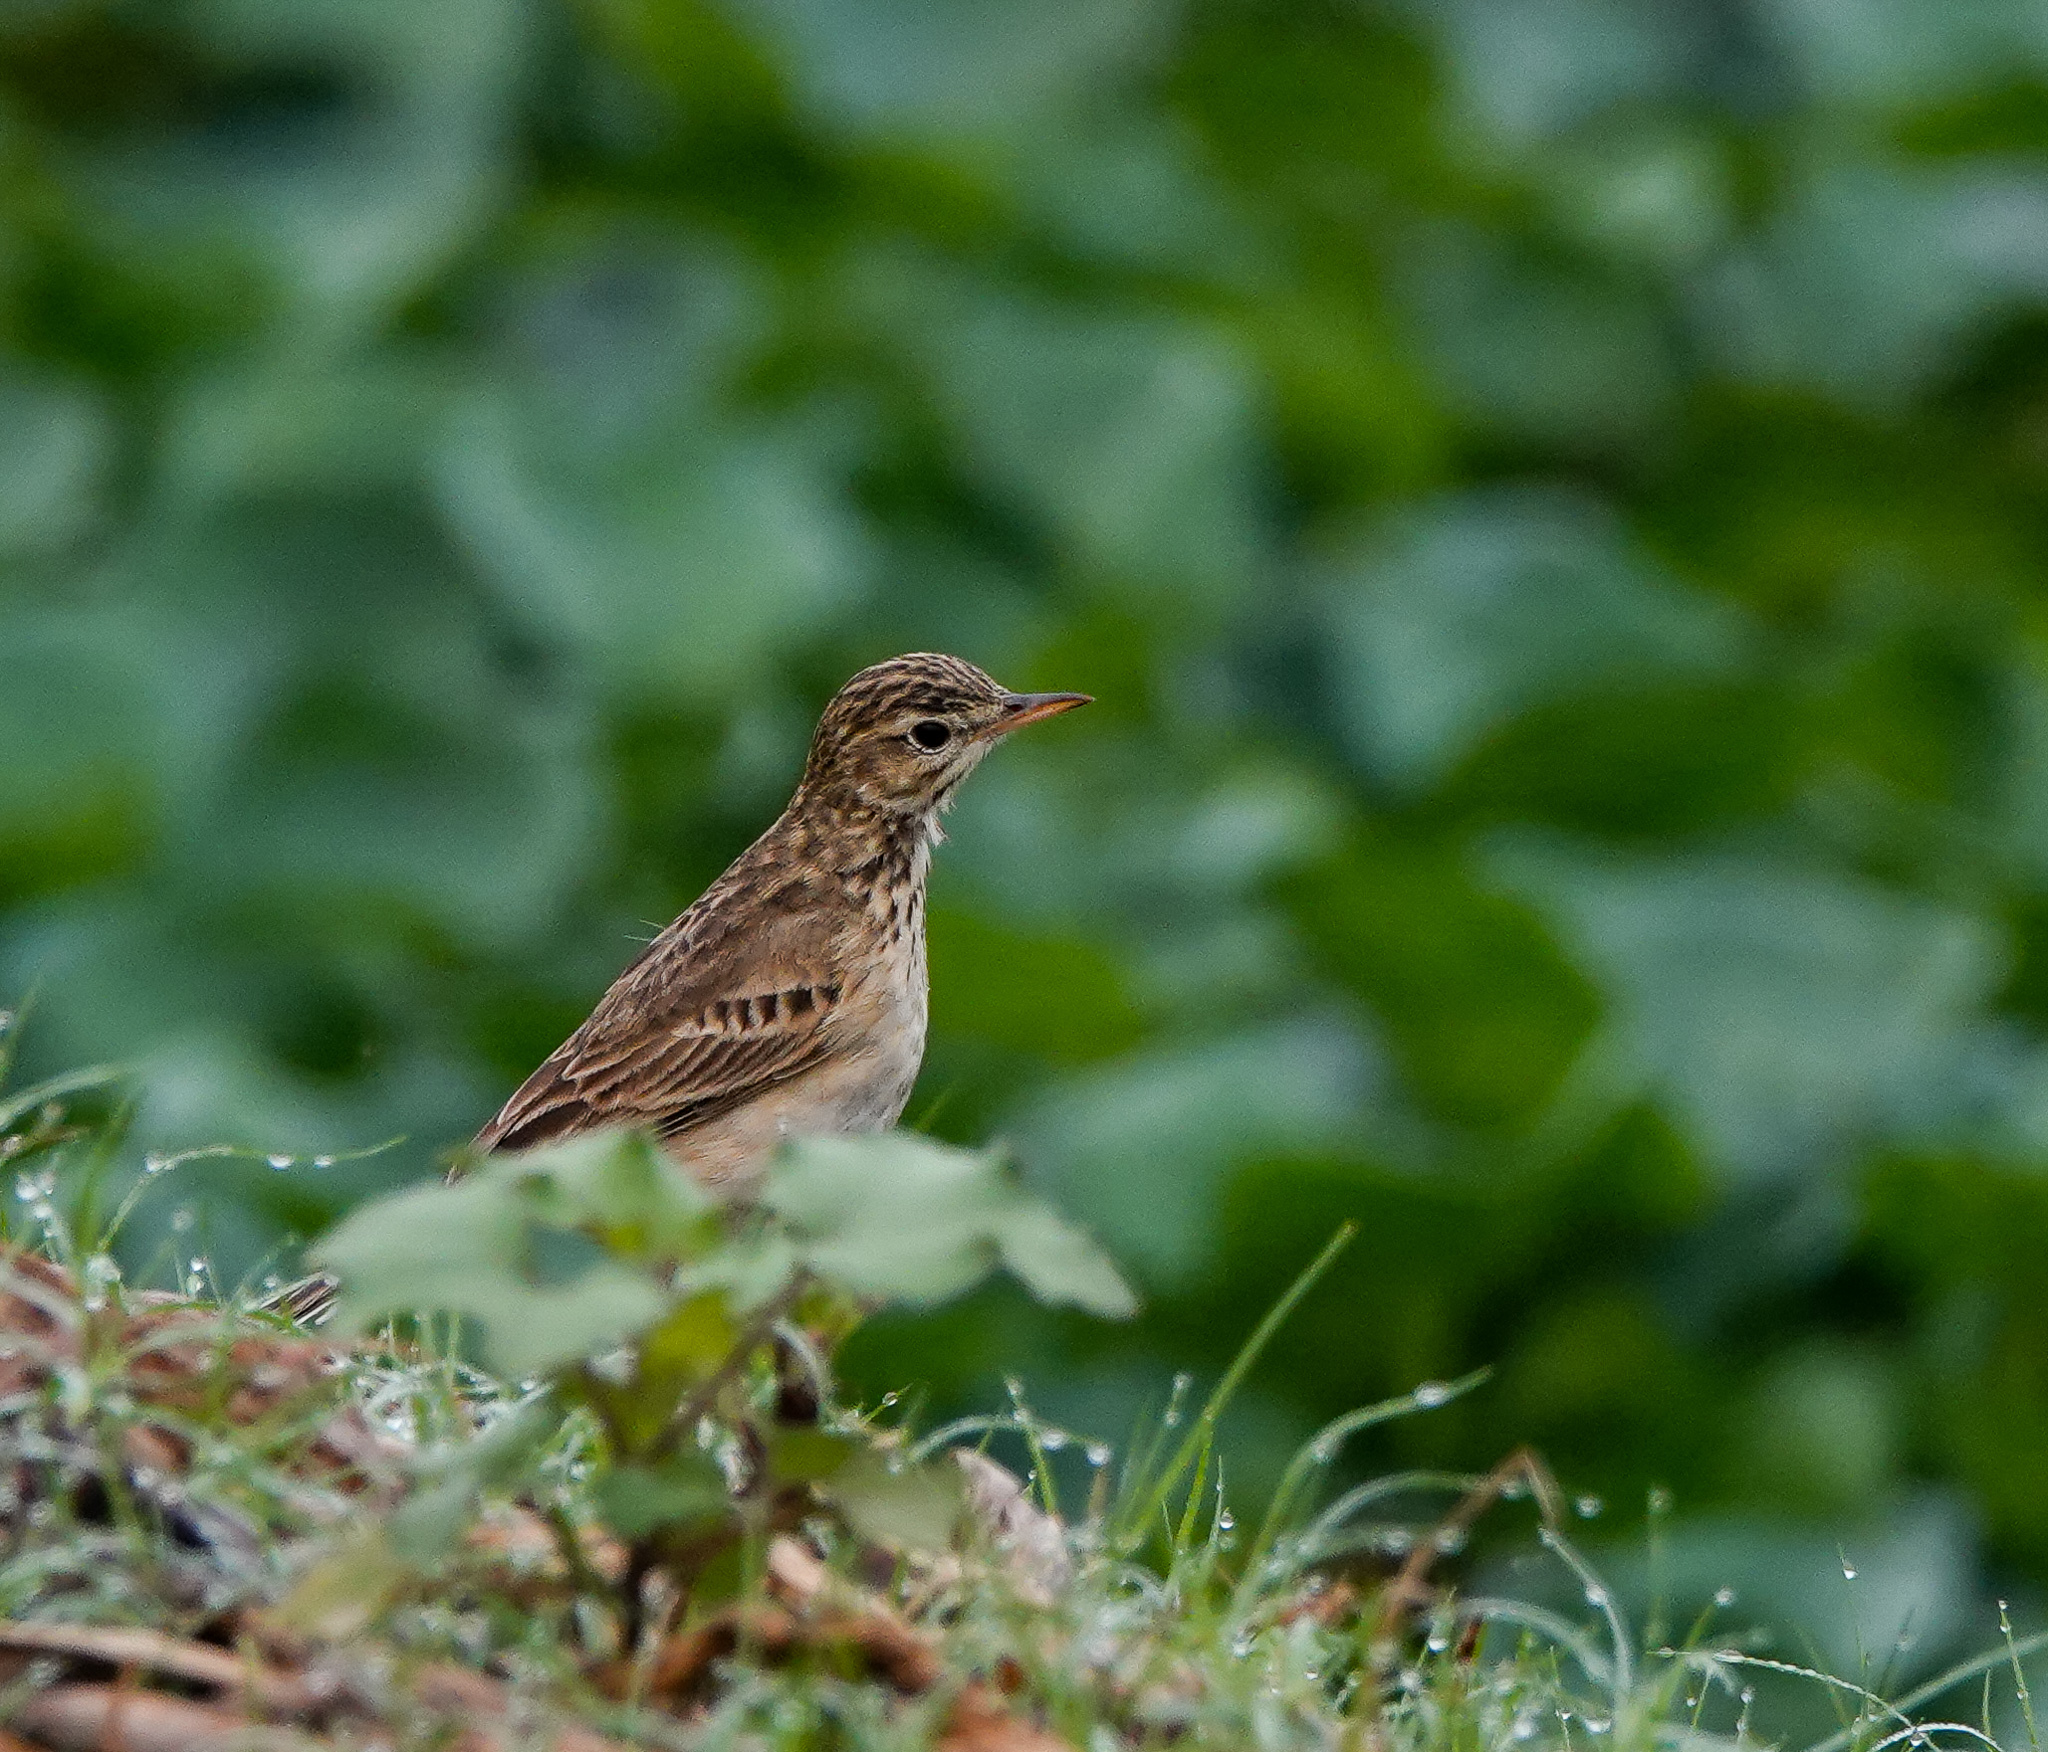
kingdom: Animalia
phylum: Chordata
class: Aves
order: Passeriformes
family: Motacillidae
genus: Anthus
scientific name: Anthus rufulus
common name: Paddyfield pipit
